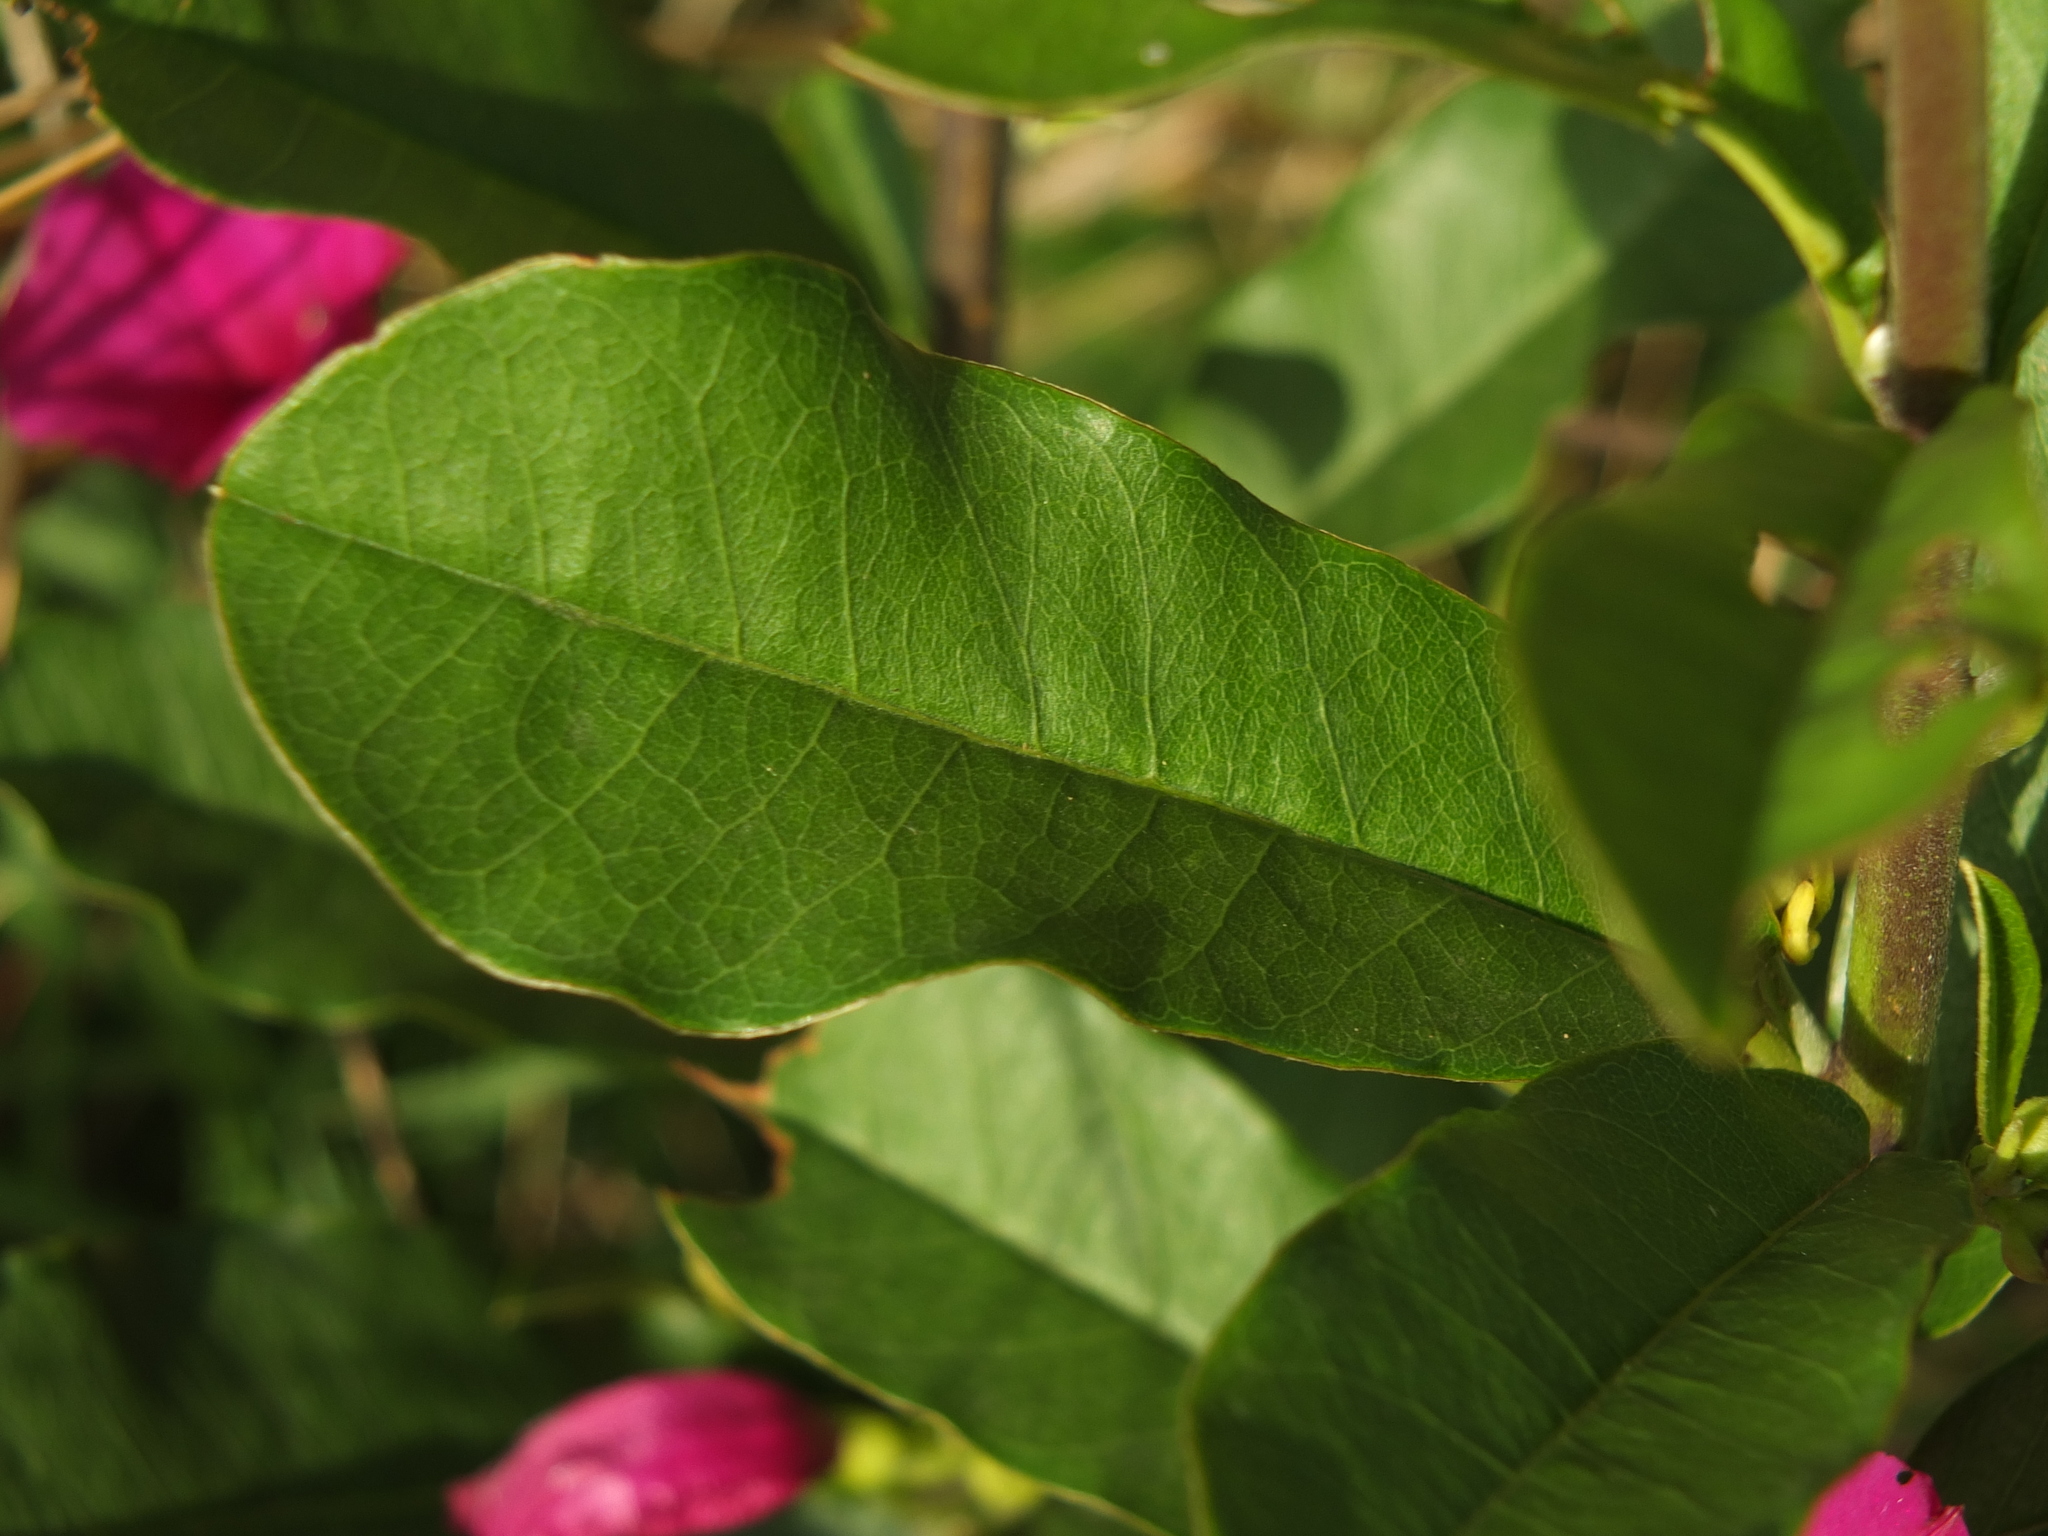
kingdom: Plantae
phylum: Tracheophyta
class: Magnoliopsida
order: Solanales
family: Convolvulaceae
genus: Argyreia
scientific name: Argyreia cuneata
